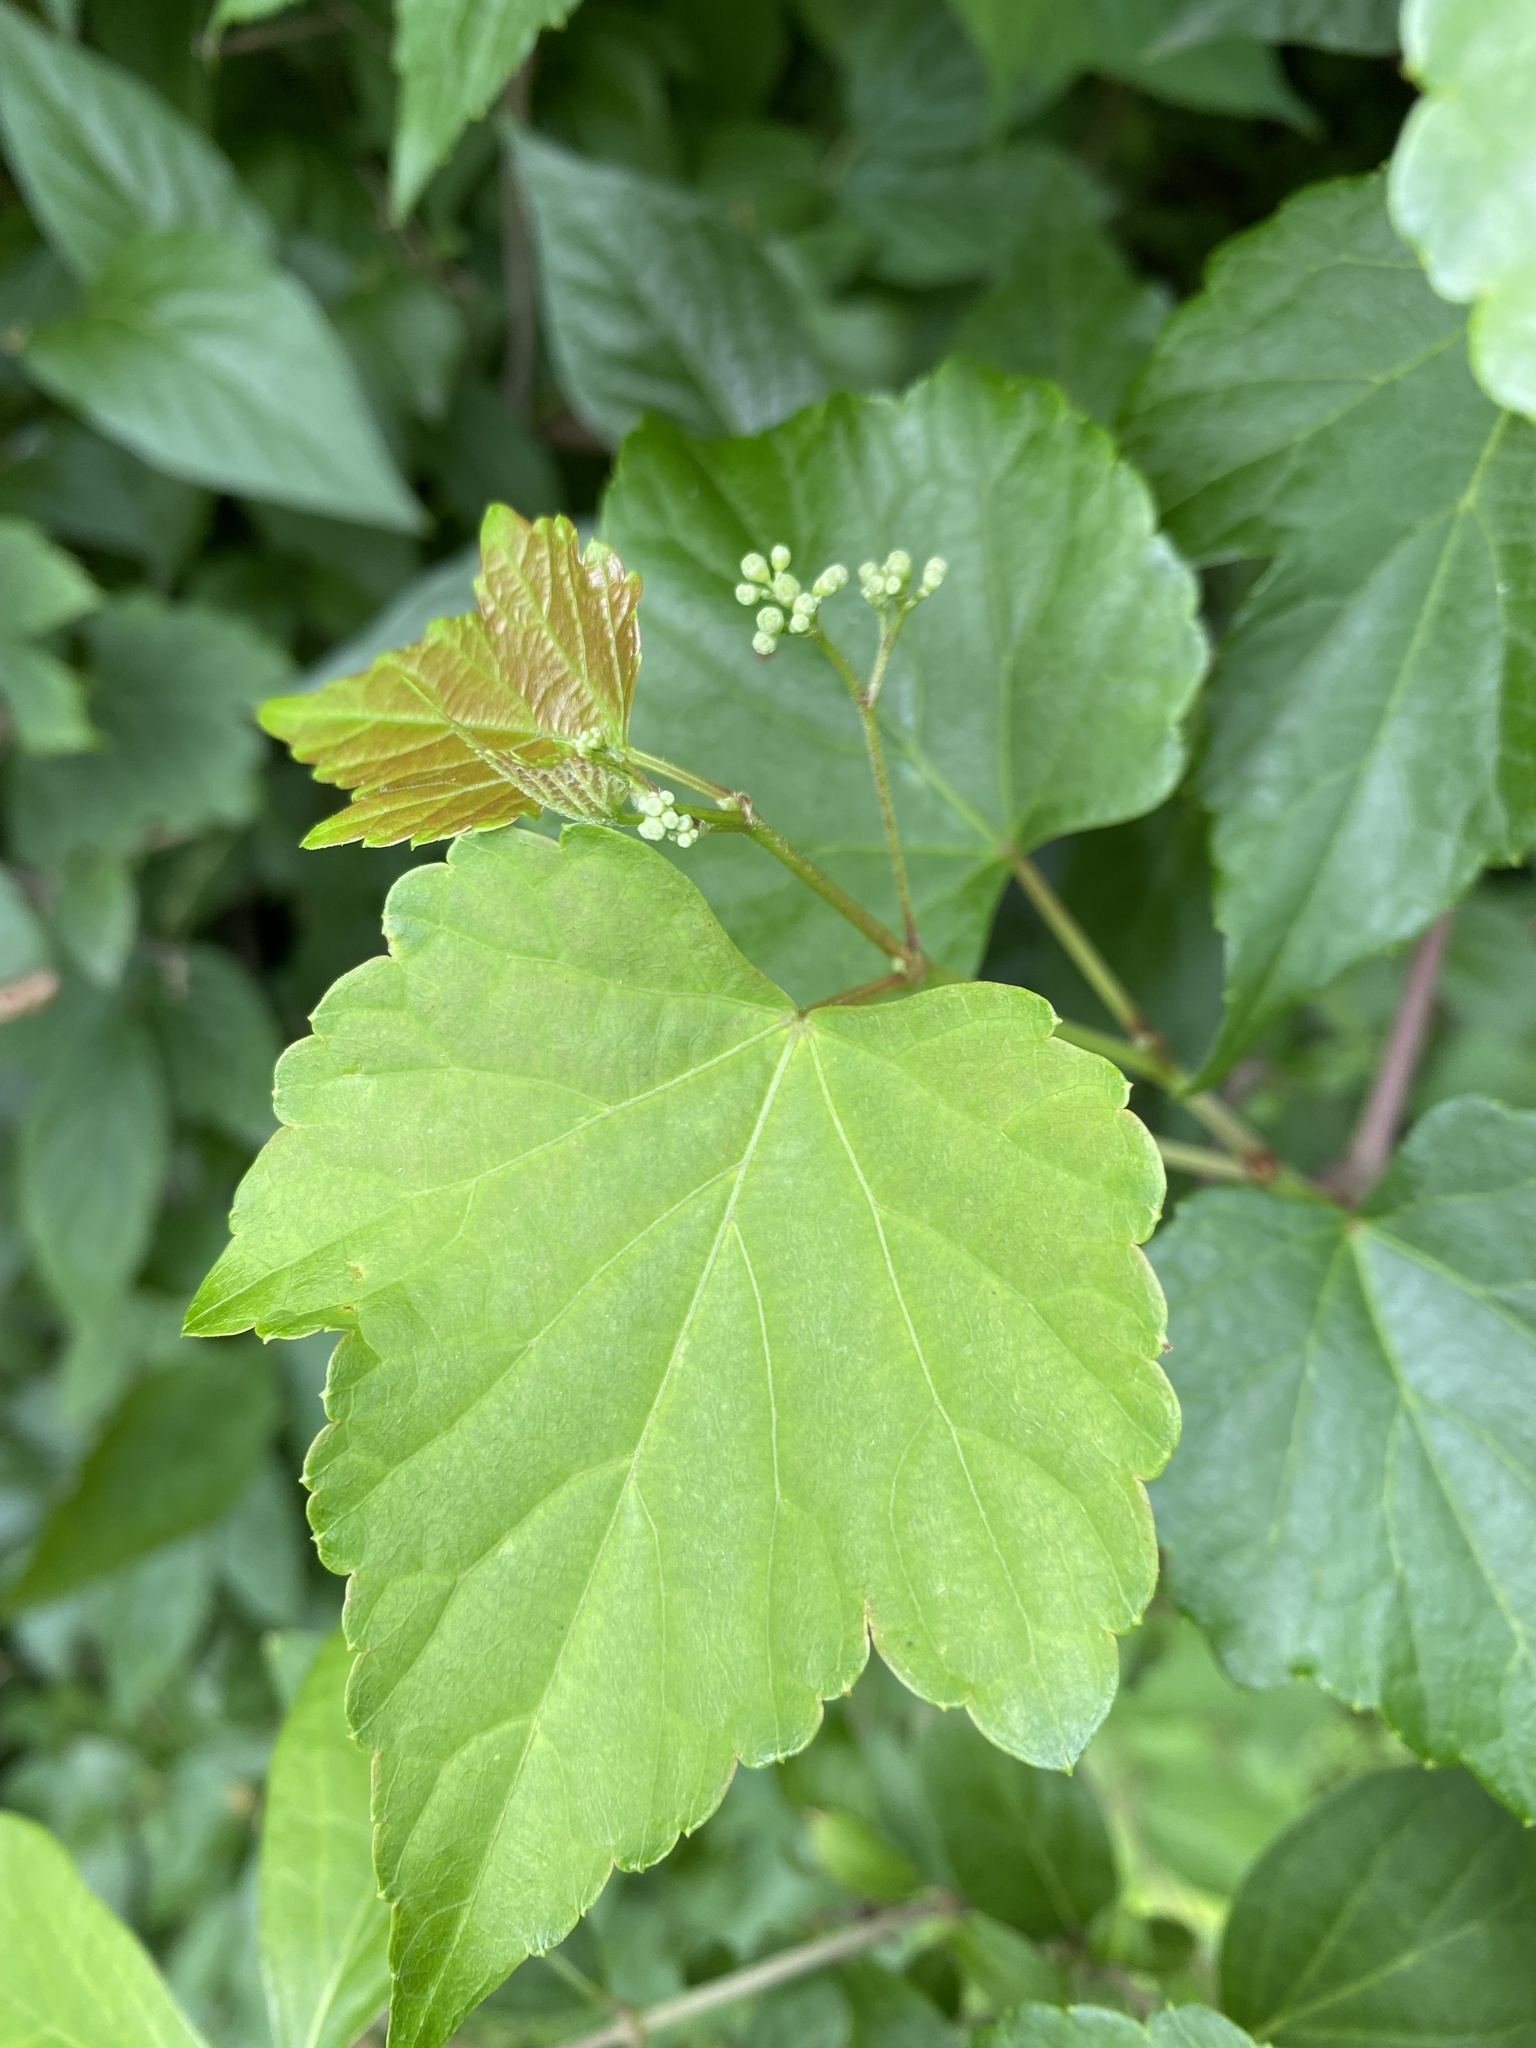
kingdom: Plantae
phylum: Tracheophyta
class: Magnoliopsida
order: Vitales
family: Vitaceae
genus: Ampelopsis
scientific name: Ampelopsis glandulosa
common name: Amur peppervine
